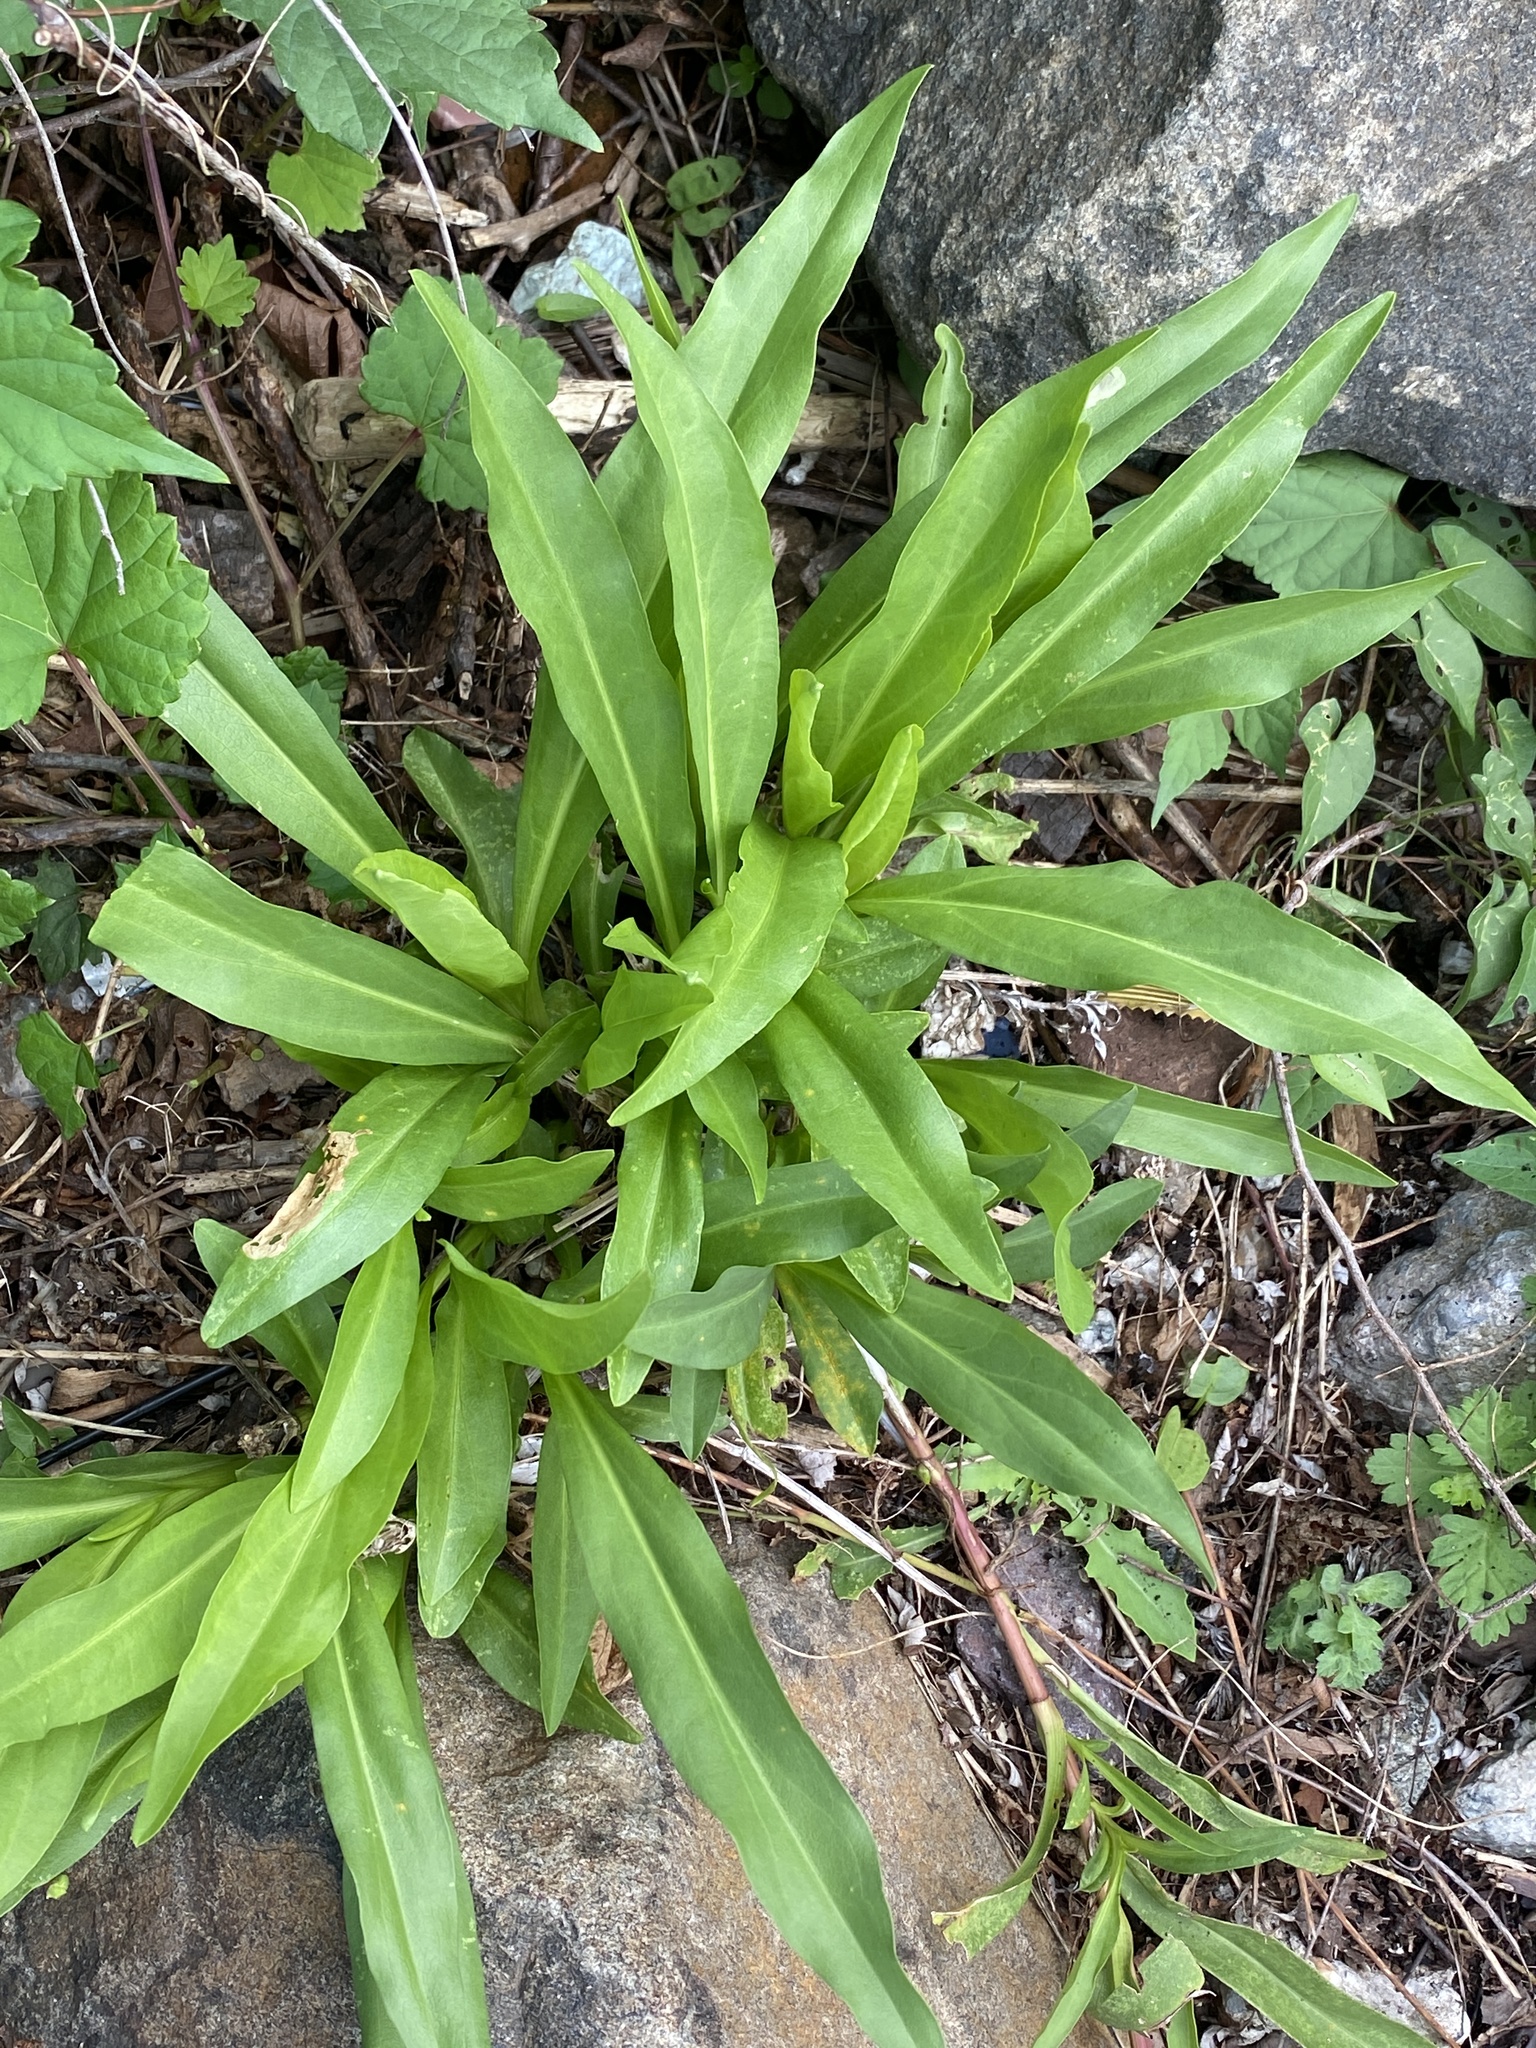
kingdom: Plantae
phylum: Tracheophyta
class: Magnoliopsida
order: Asterales
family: Asteraceae
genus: Solidago
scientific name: Solidago sempervirens
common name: Salt-marsh goldenrod
